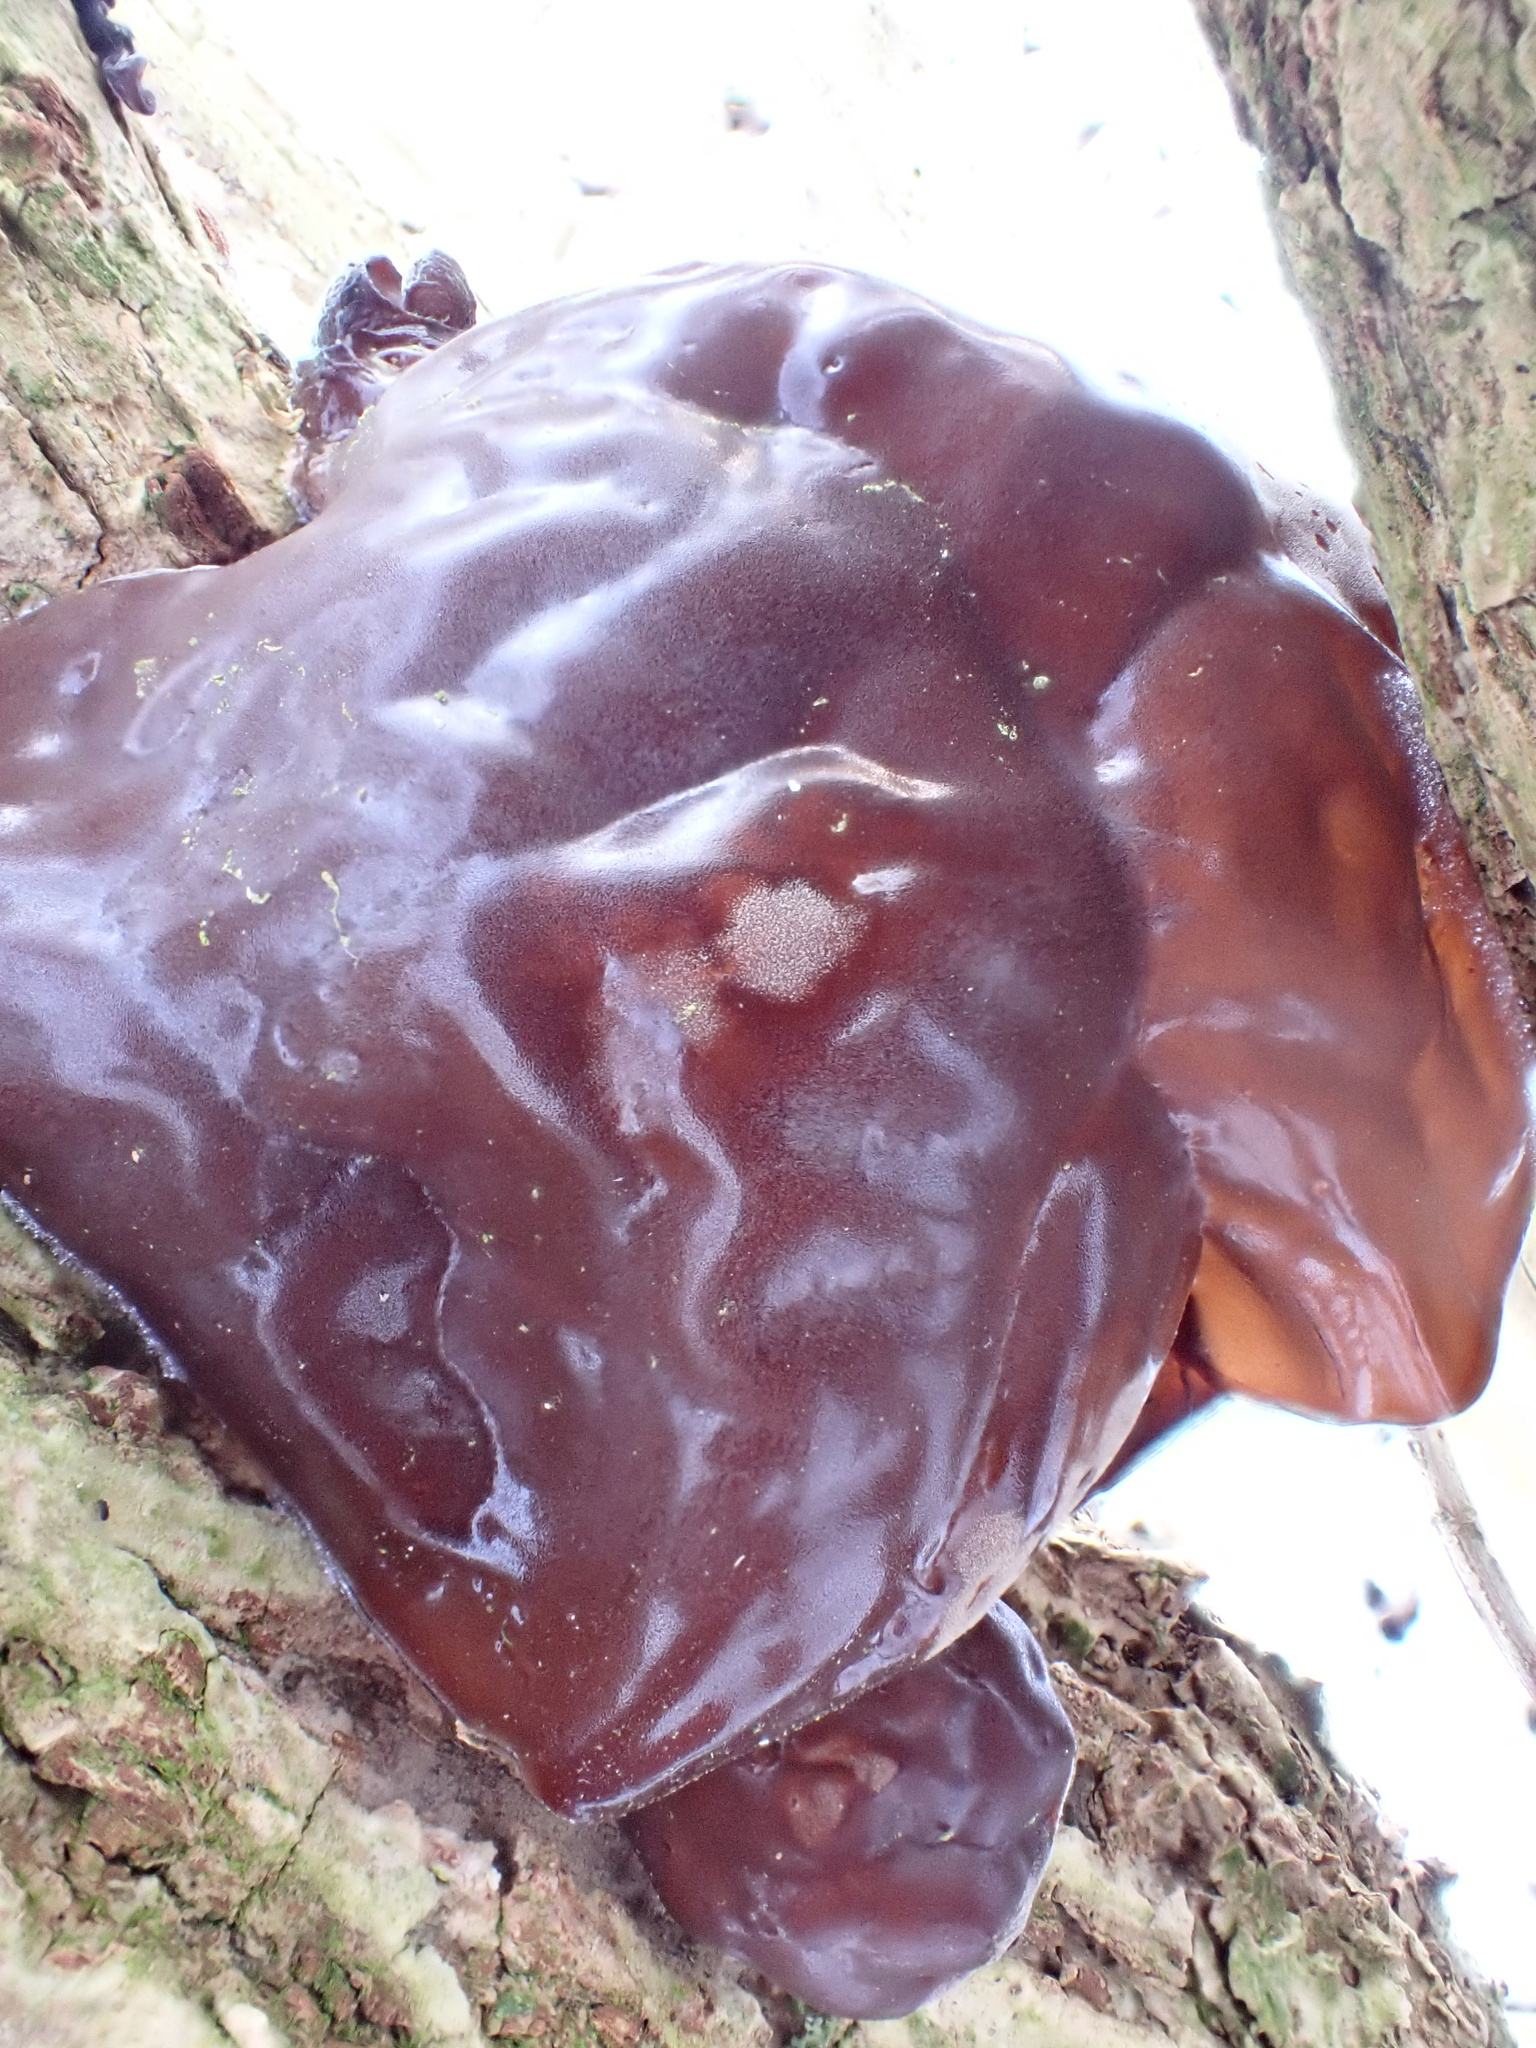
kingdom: Fungi
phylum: Basidiomycota
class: Agaricomycetes
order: Auriculariales
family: Auriculariaceae
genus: Auricularia
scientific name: Auricularia auricula-judae
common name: Jelly ear
